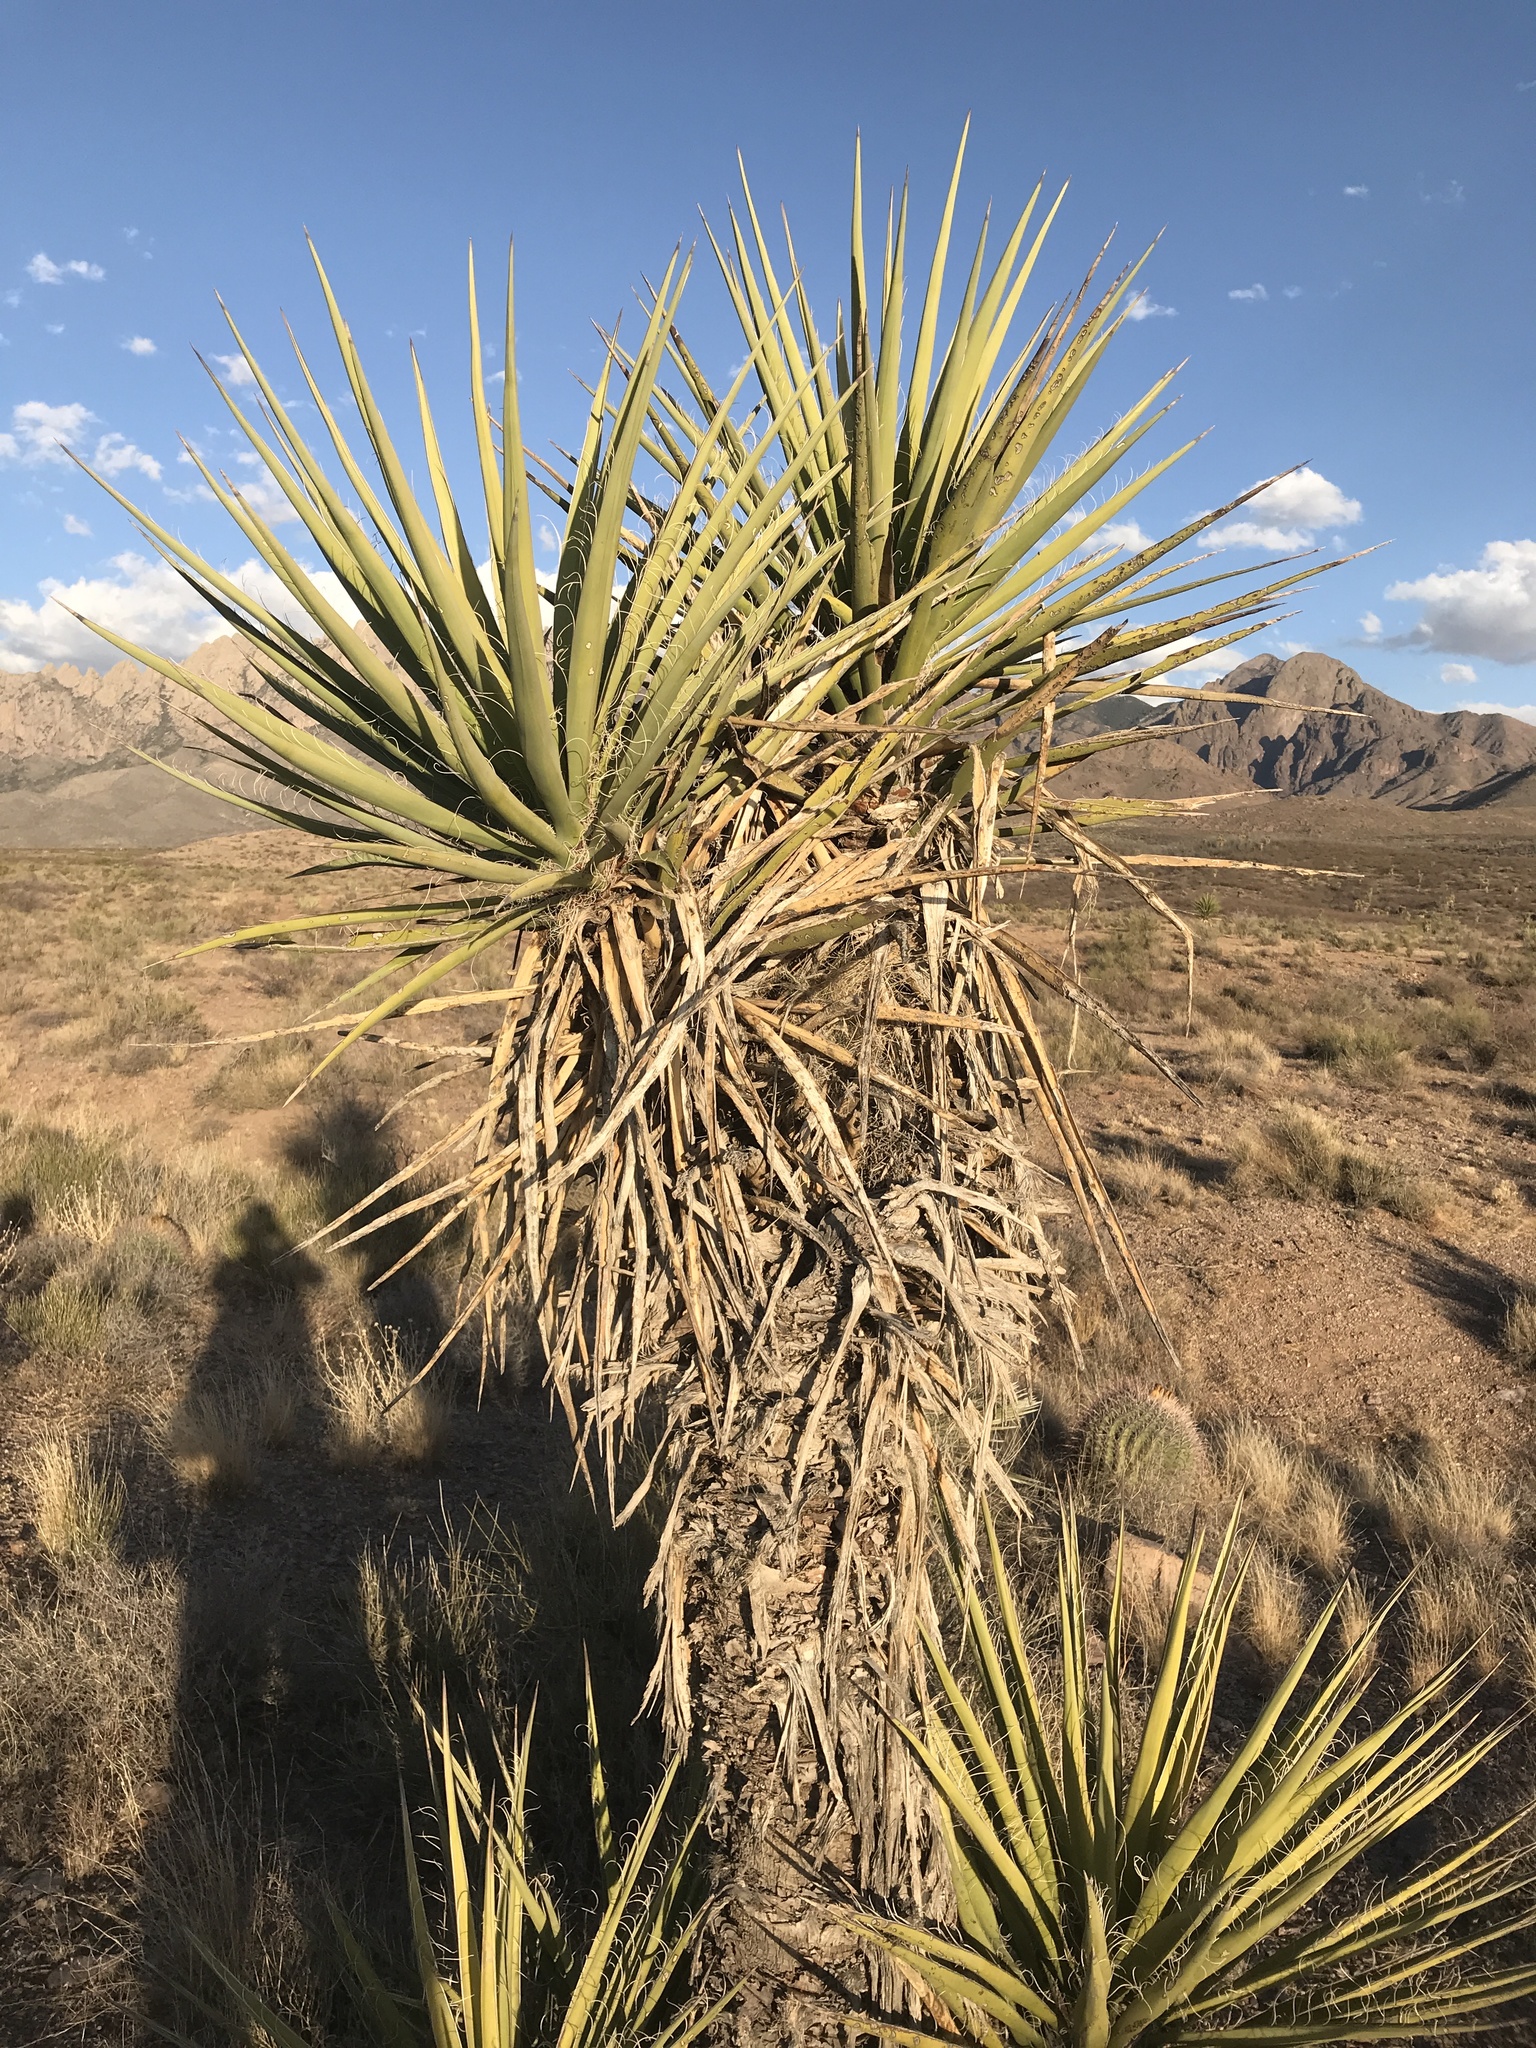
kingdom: Plantae
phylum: Tracheophyta
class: Liliopsida
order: Asparagales
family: Asparagaceae
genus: Yucca
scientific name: Yucca treculiana
